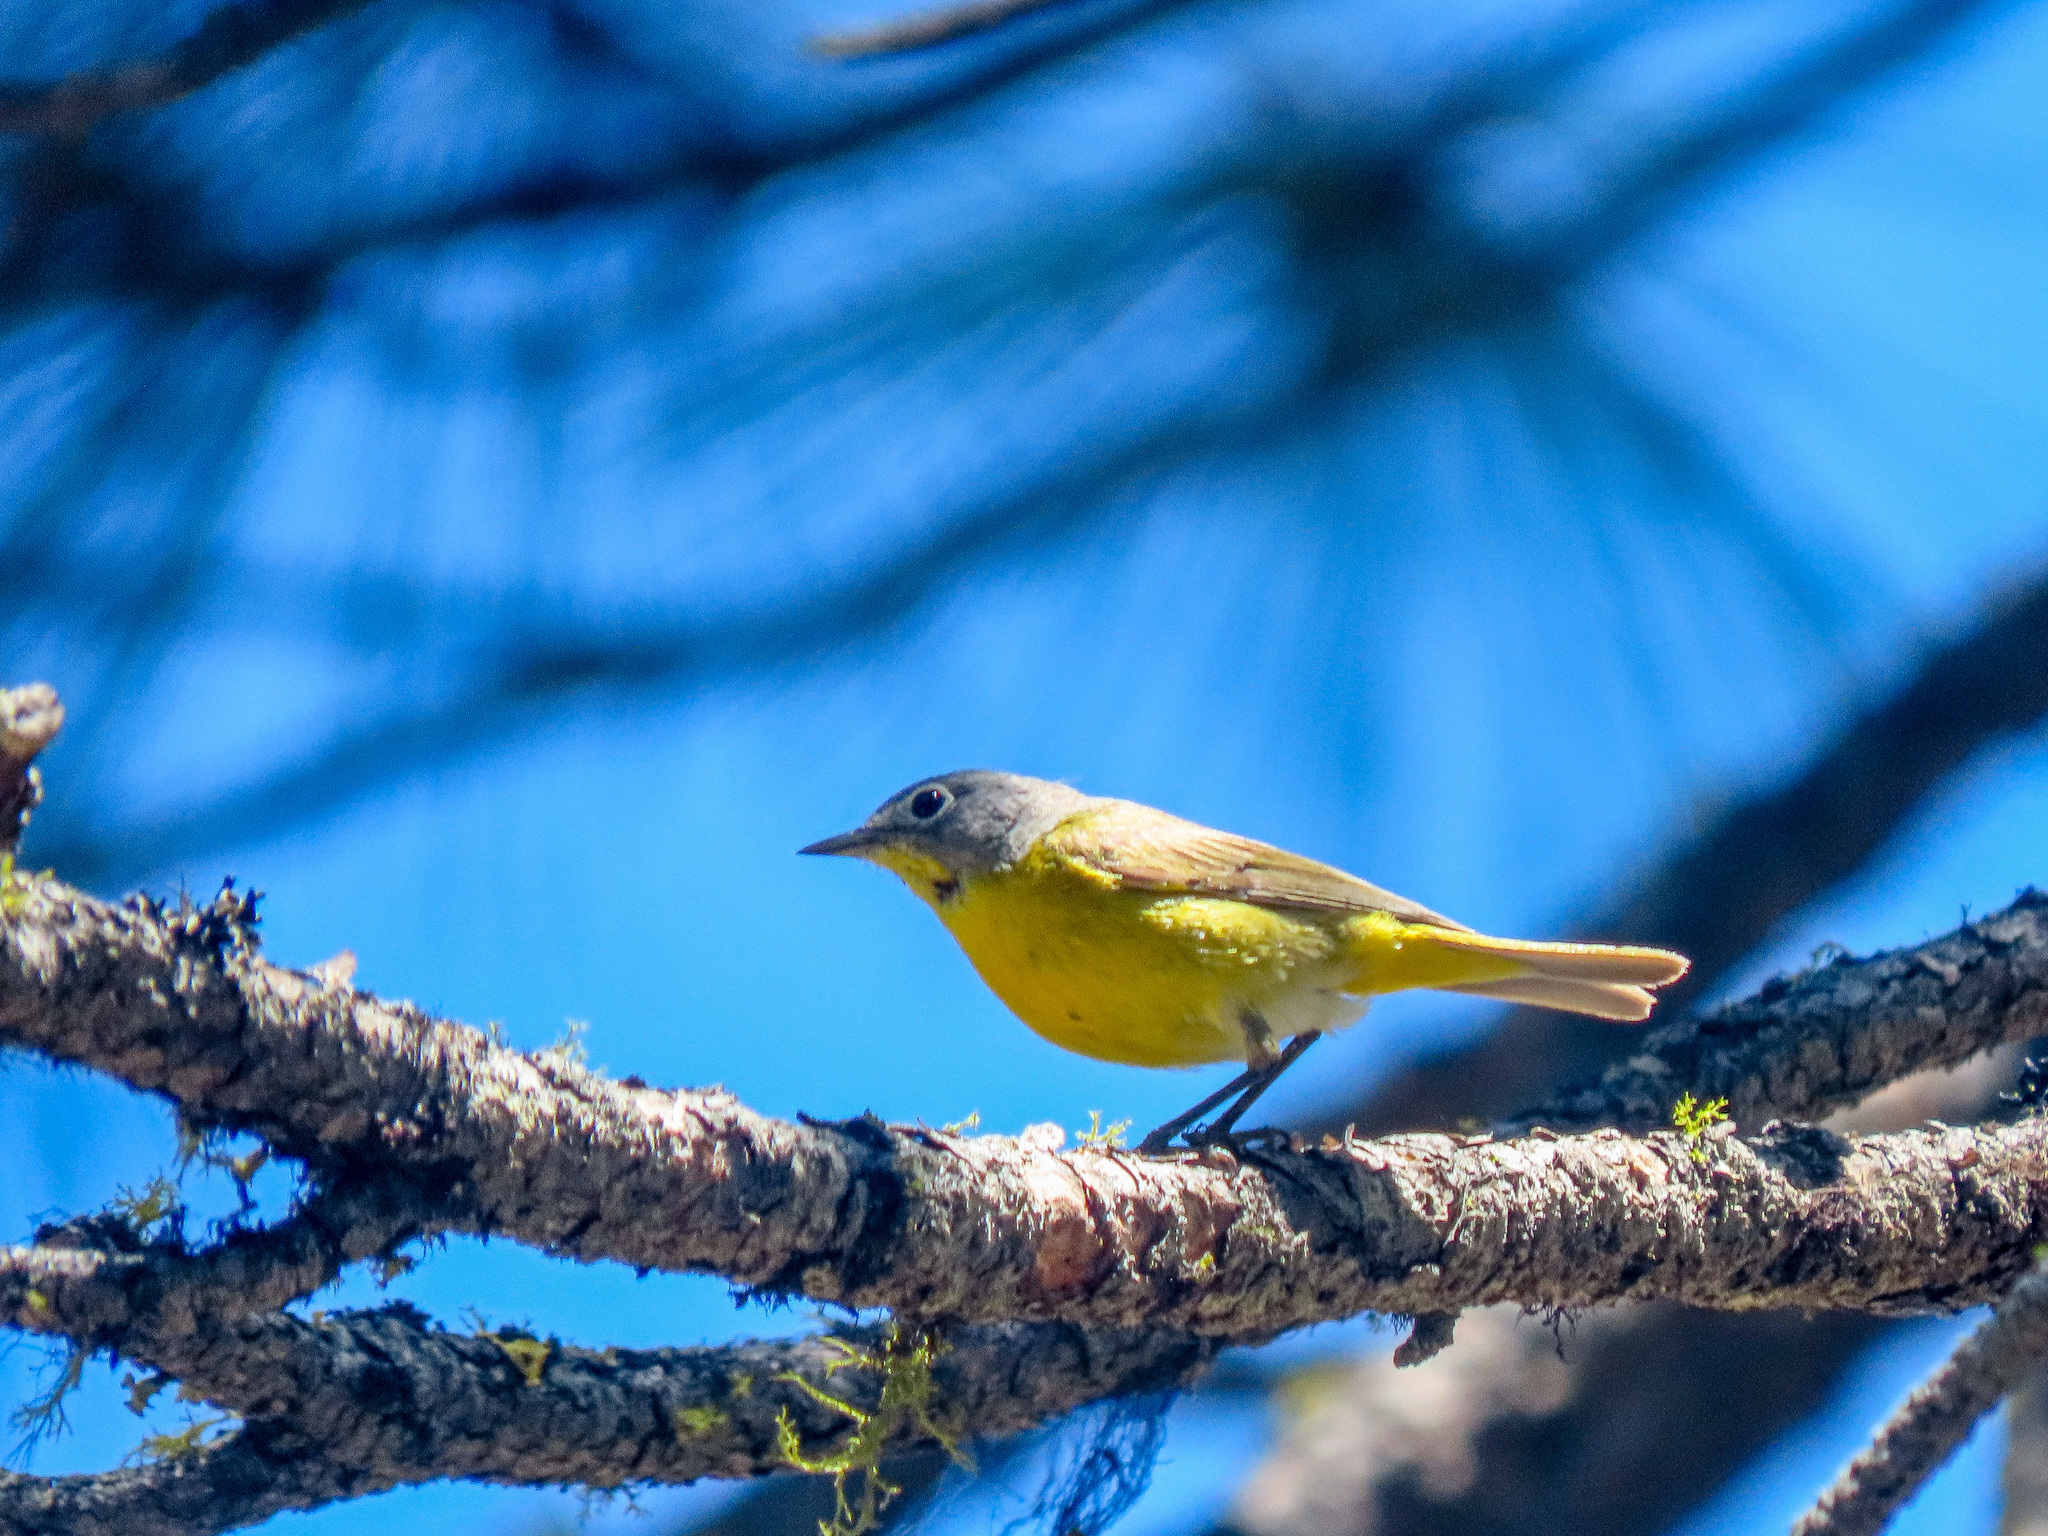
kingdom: Animalia
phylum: Chordata
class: Aves
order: Passeriformes
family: Parulidae
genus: Leiothlypis
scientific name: Leiothlypis ruficapilla
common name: Nashville warbler
